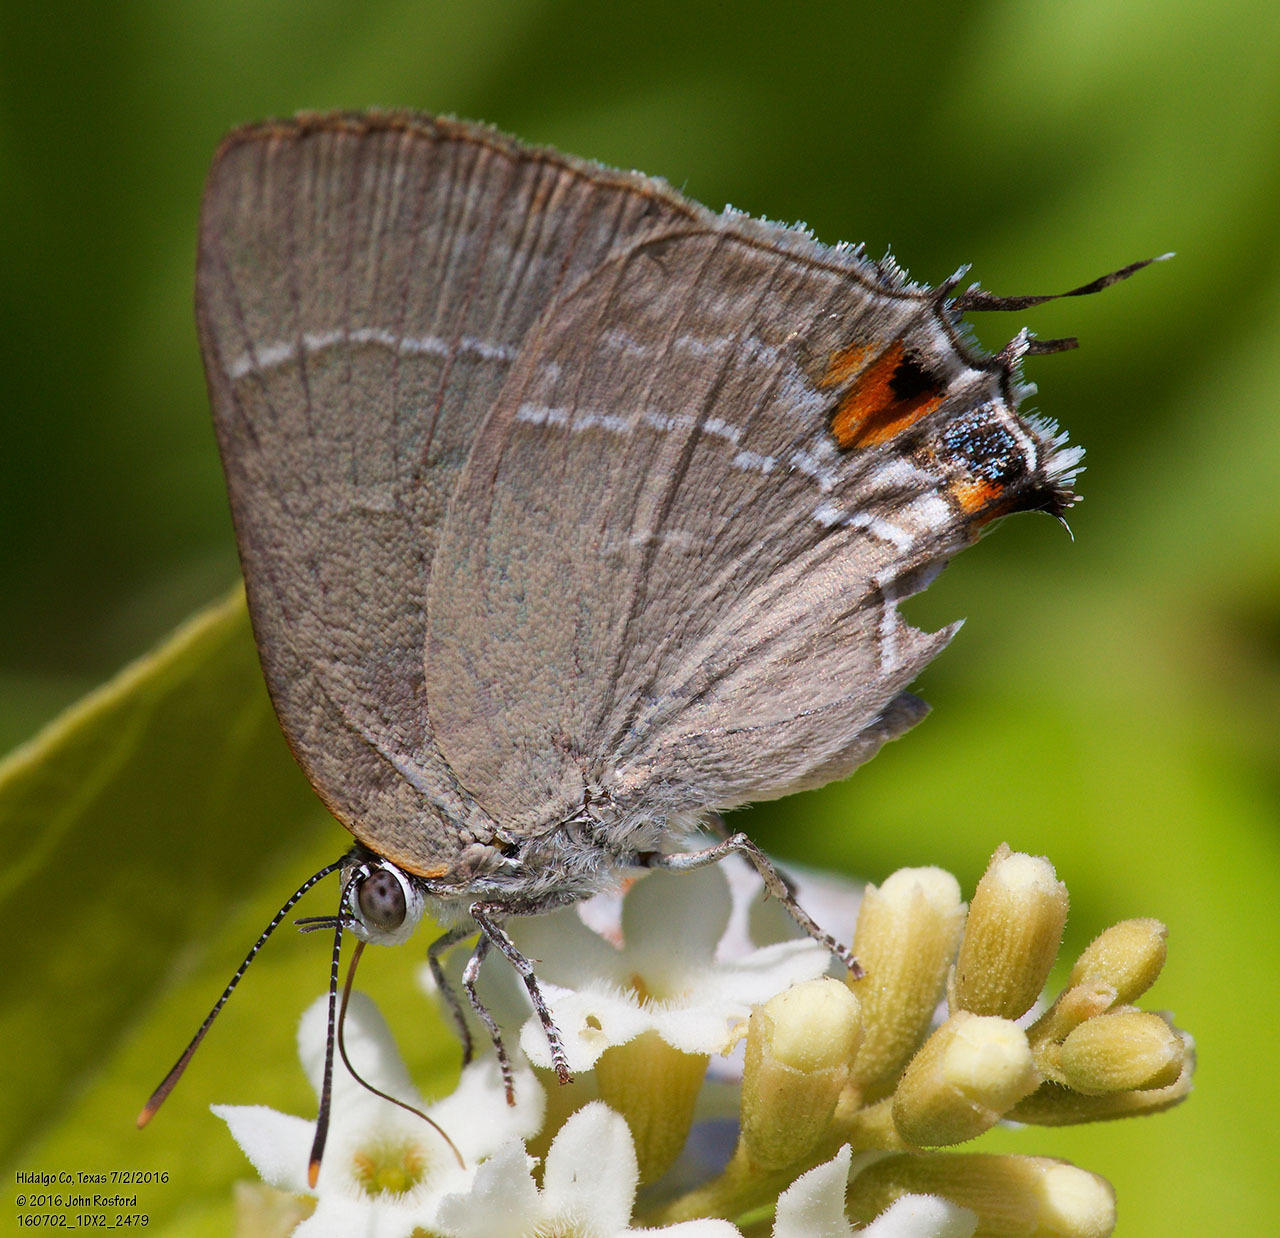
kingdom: Animalia
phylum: Arthropoda
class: Insecta
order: Lepidoptera
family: Lycaenidae
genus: Thecla
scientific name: Thecla marius
